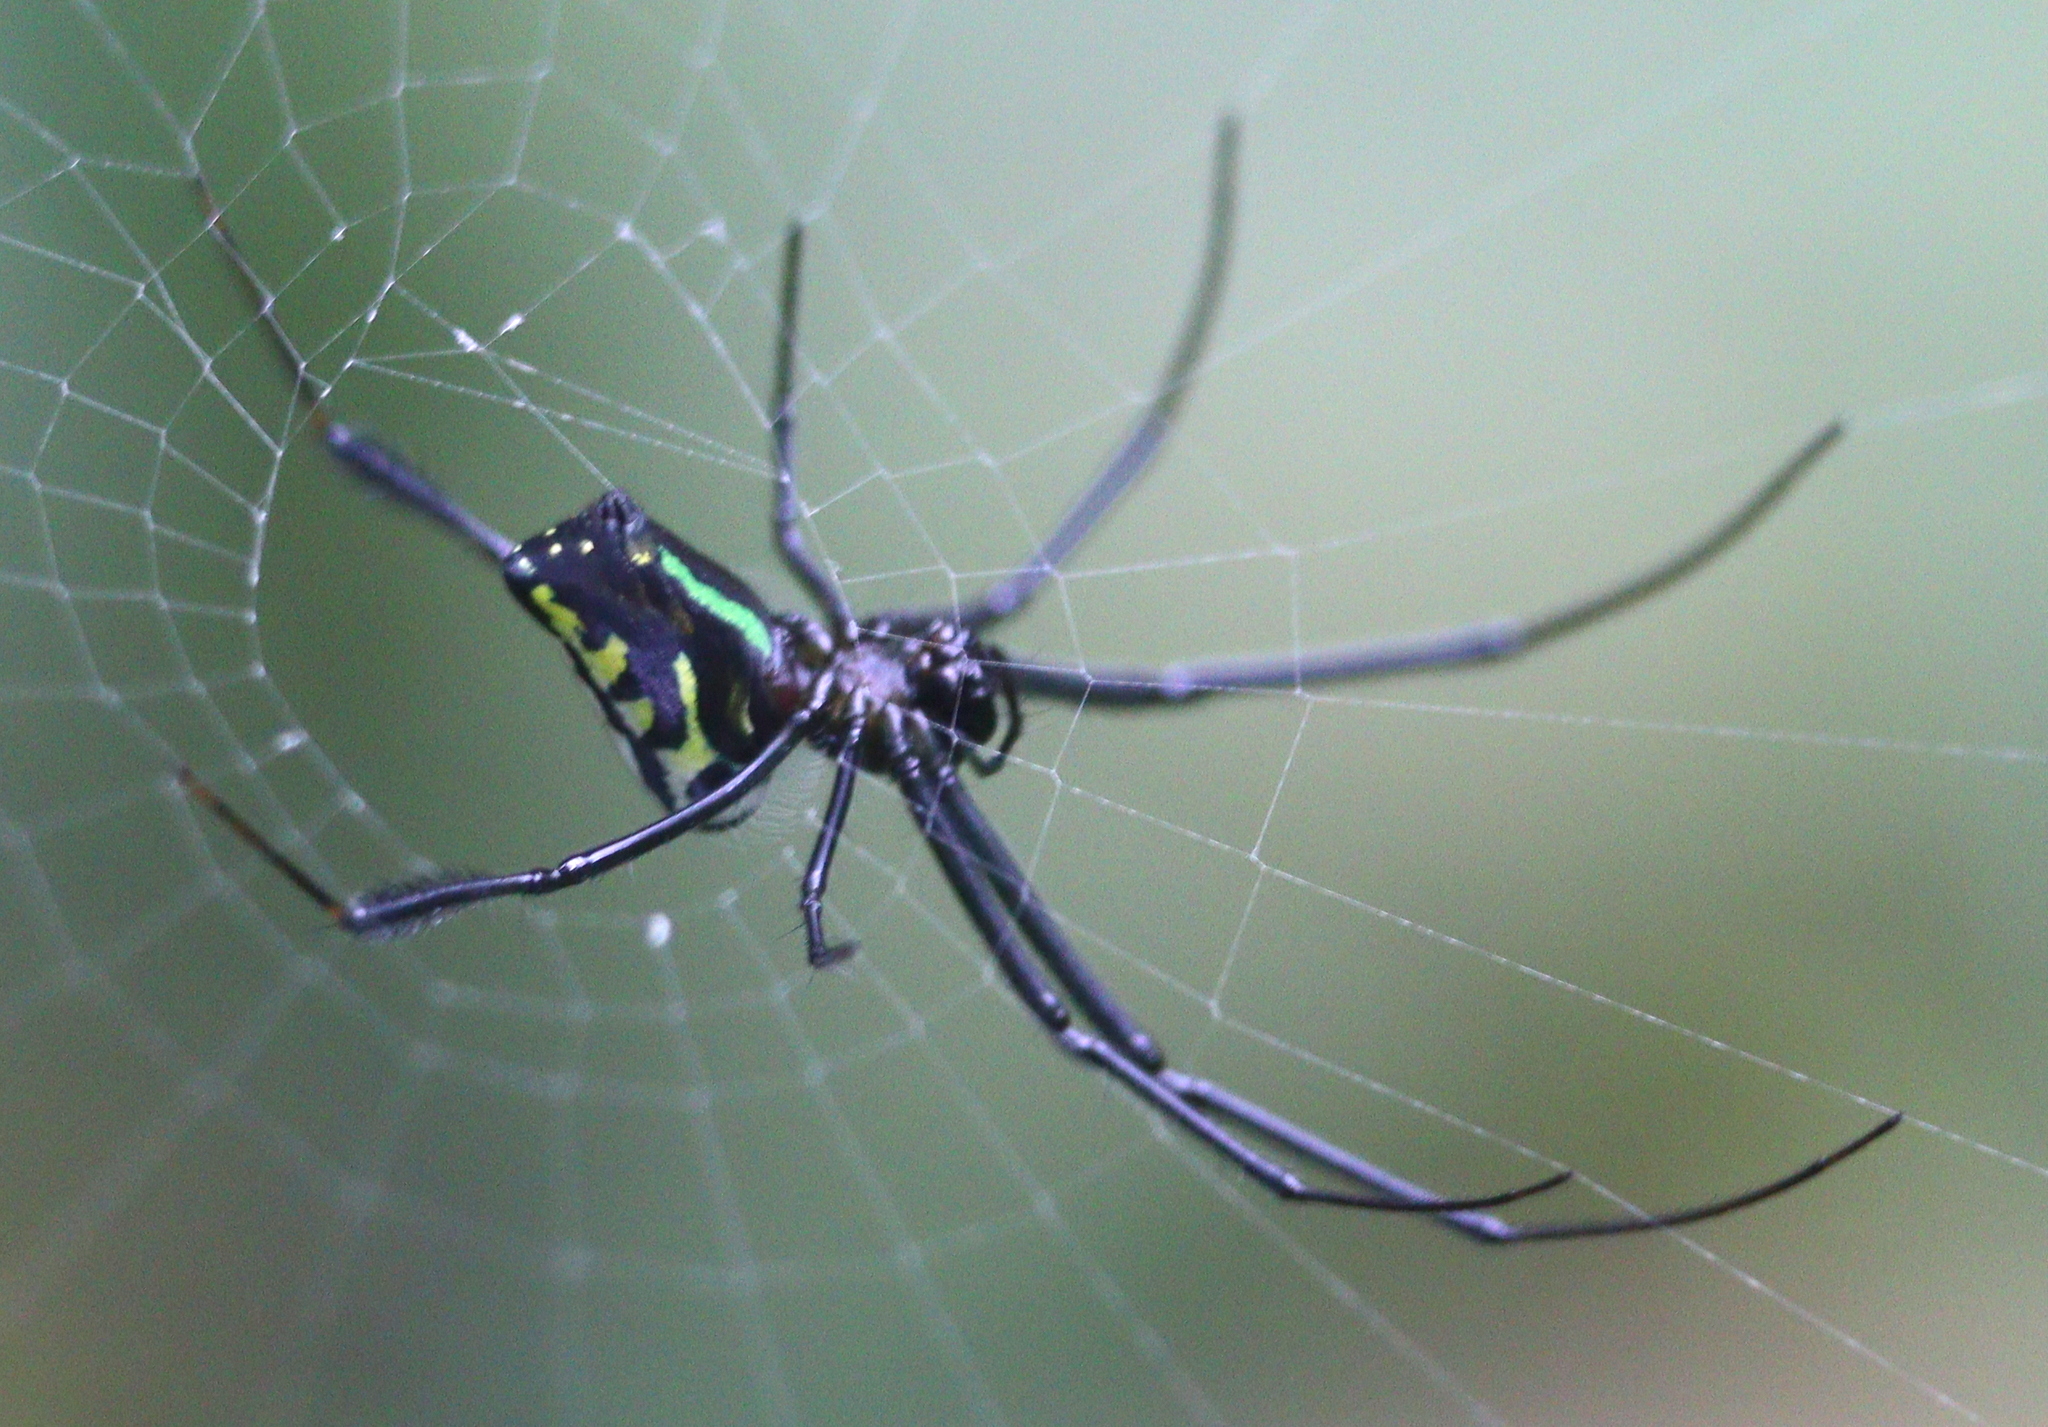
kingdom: Animalia
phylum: Arthropoda
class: Arachnida
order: Araneae
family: Tetragnathidae
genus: Leucauge
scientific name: Leucauge tessellata
